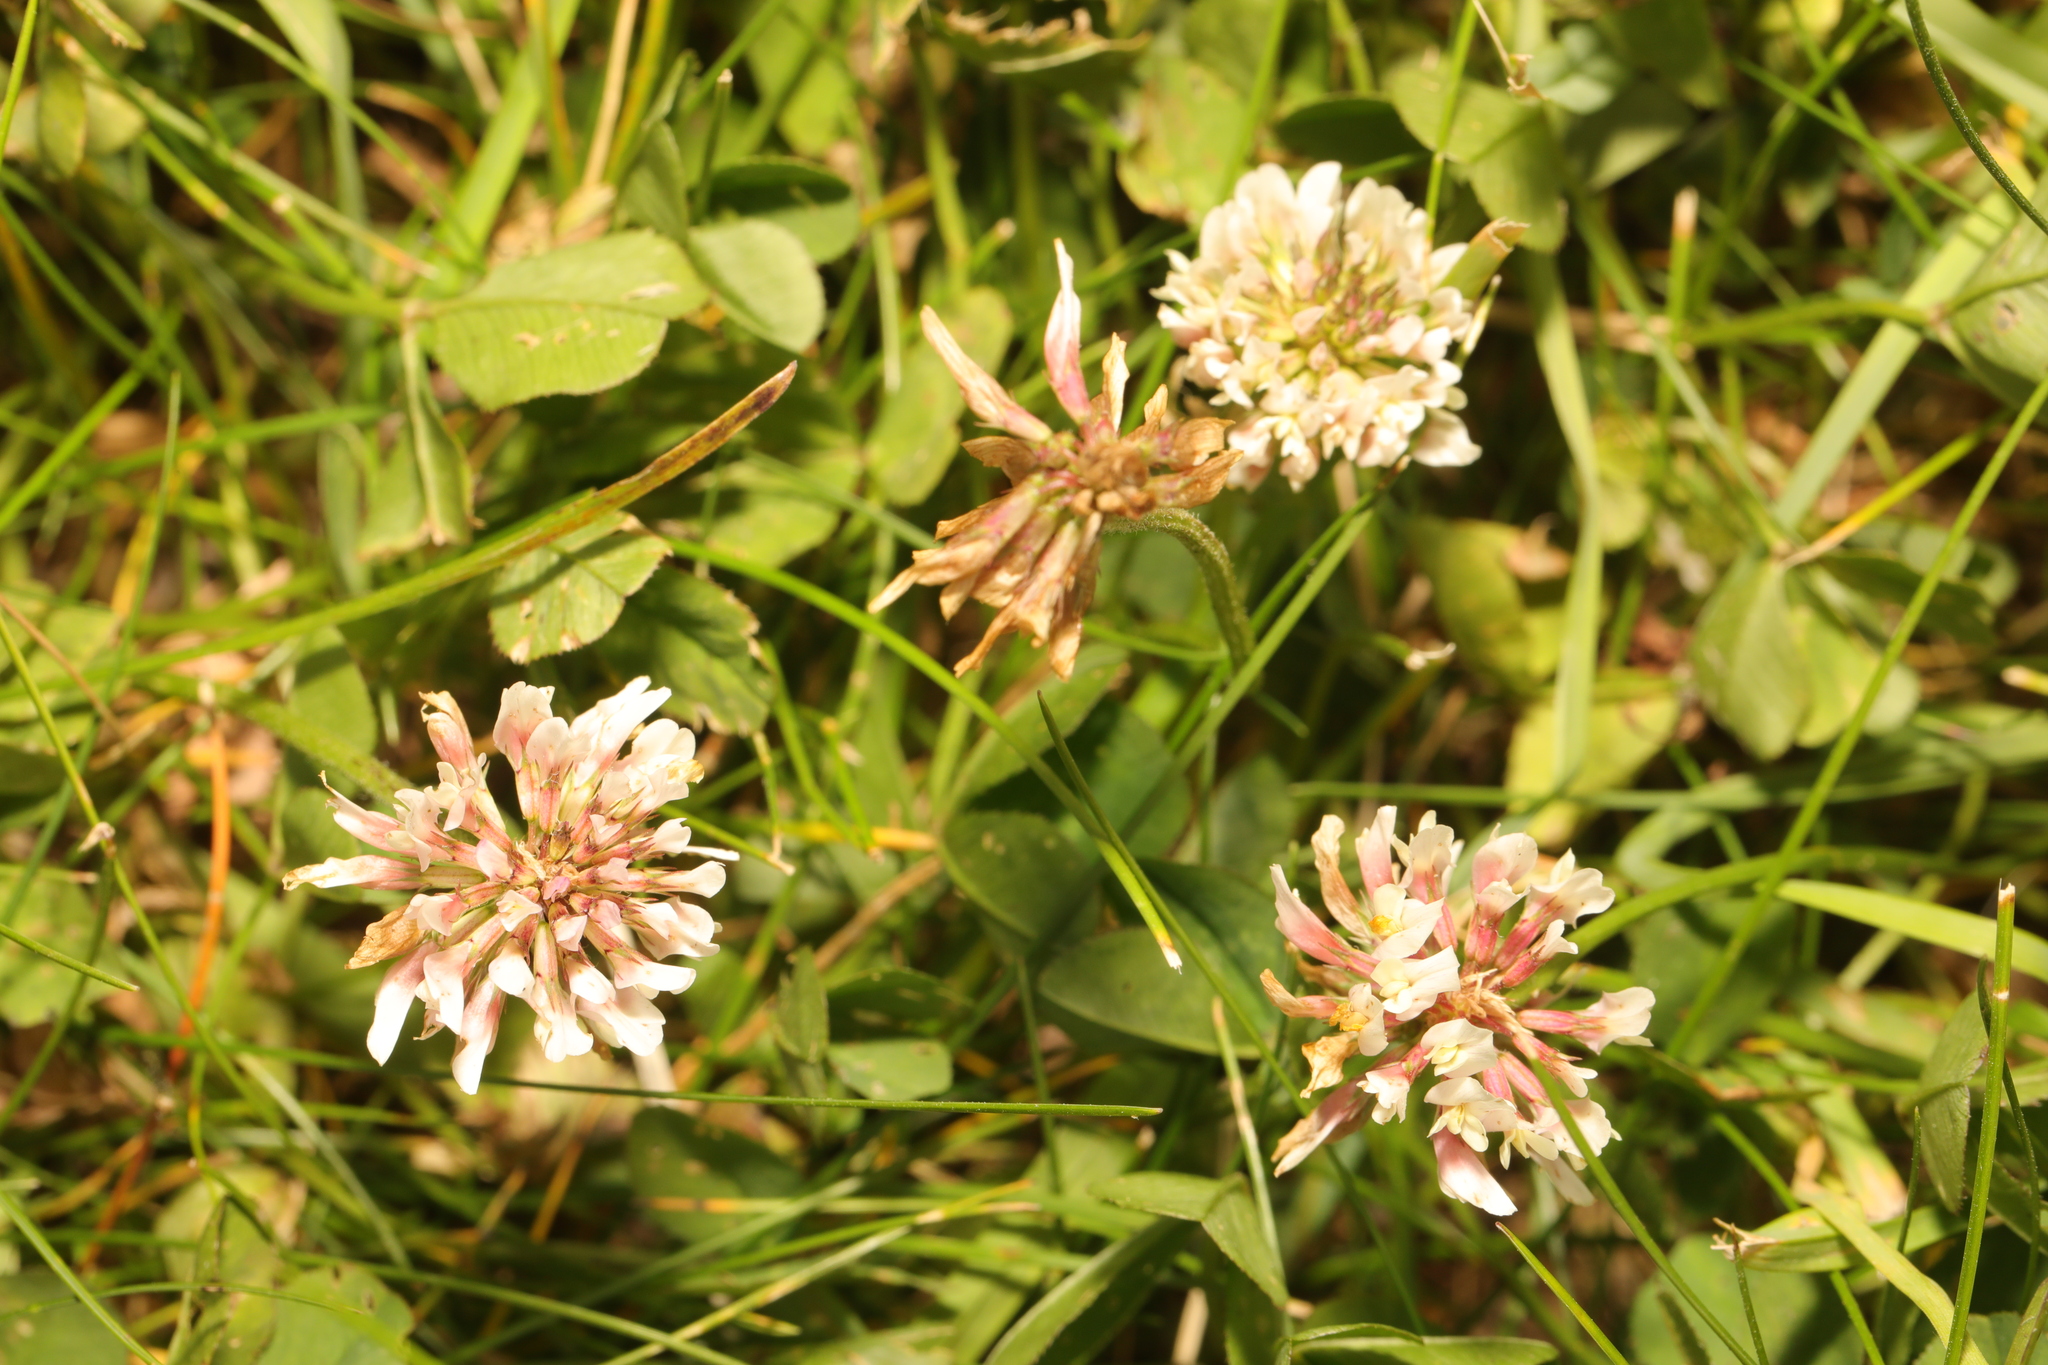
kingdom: Plantae
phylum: Tracheophyta
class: Magnoliopsida
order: Fabales
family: Fabaceae
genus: Trifolium
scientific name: Trifolium repens
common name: White clover
